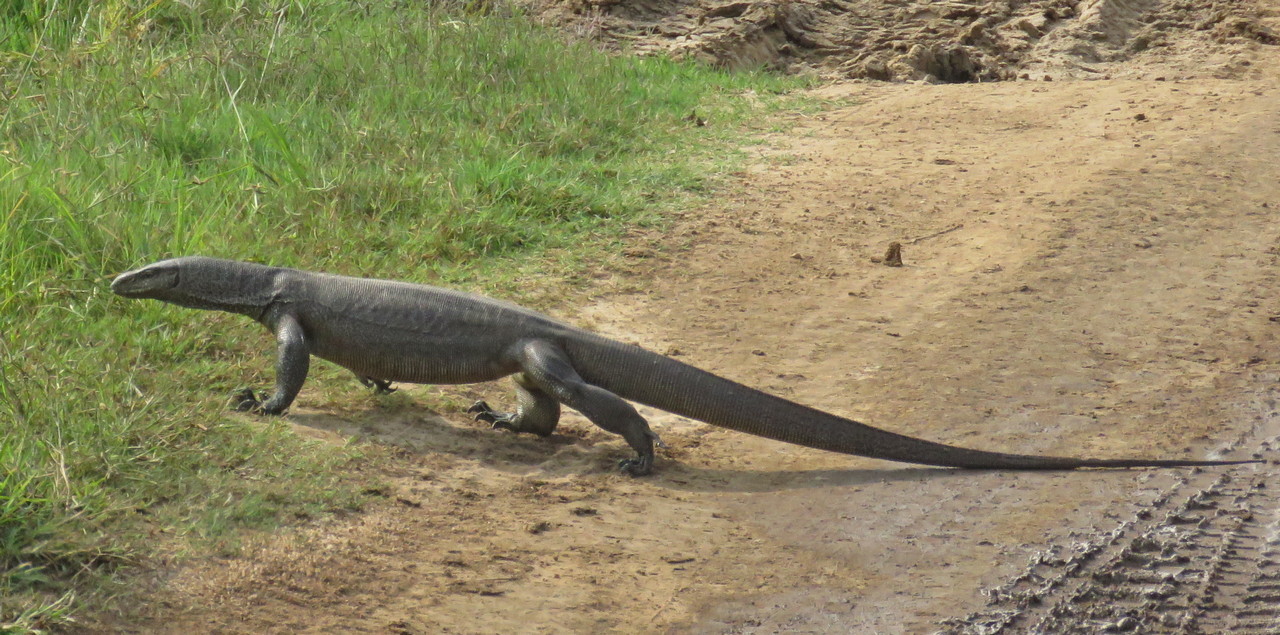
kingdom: Animalia
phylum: Chordata
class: Squamata
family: Varanidae
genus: Varanus
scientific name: Varanus bengalensis
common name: Bengal monitor
